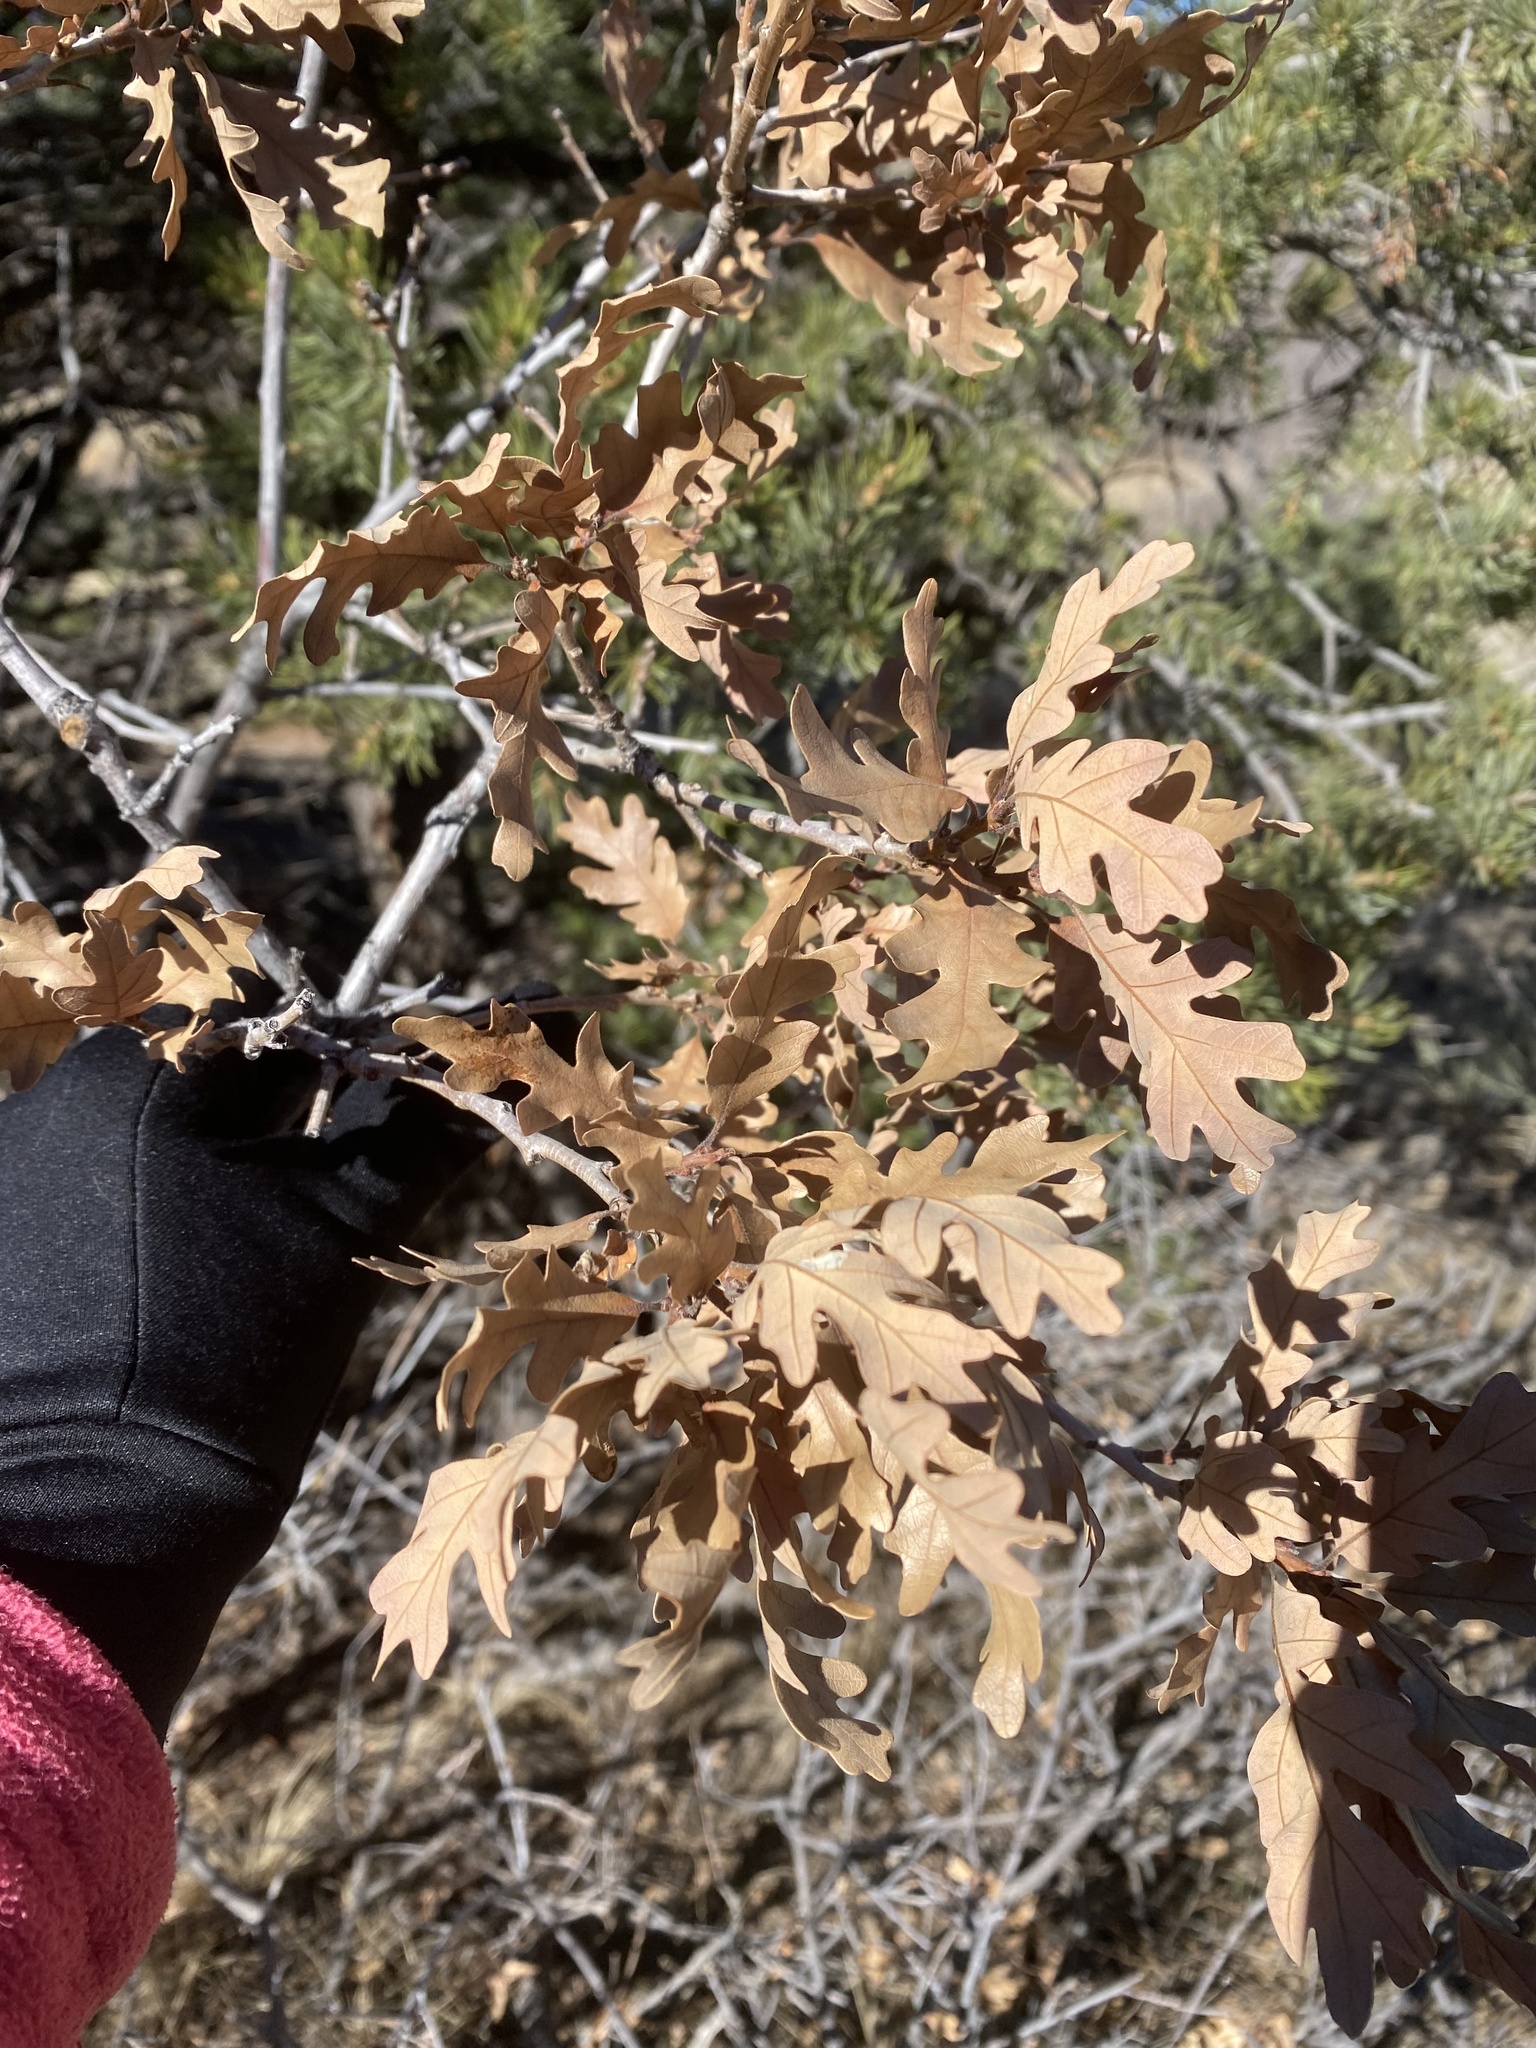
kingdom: Plantae
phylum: Tracheophyta
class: Magnoliopsida
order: Fagales
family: Fagaceae
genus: Quercus
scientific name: Quercus gambelii
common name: Gambel oak
